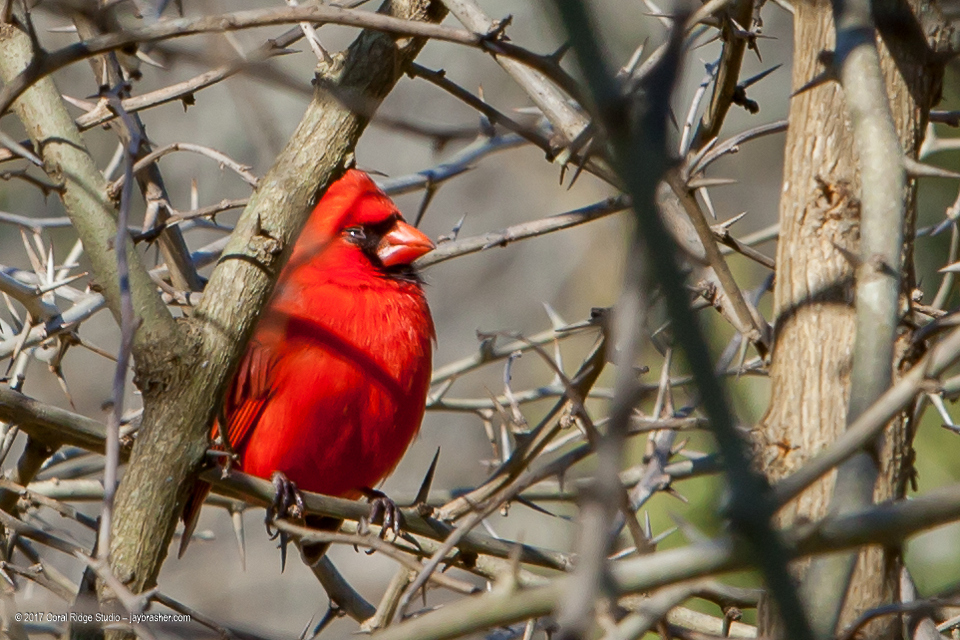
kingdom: Animalia
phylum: Chordata
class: Aves
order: Passeriformes
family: Cardinalidae
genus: Cardinalis
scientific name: Cardinalis cardinalis
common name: Northern cardinal
